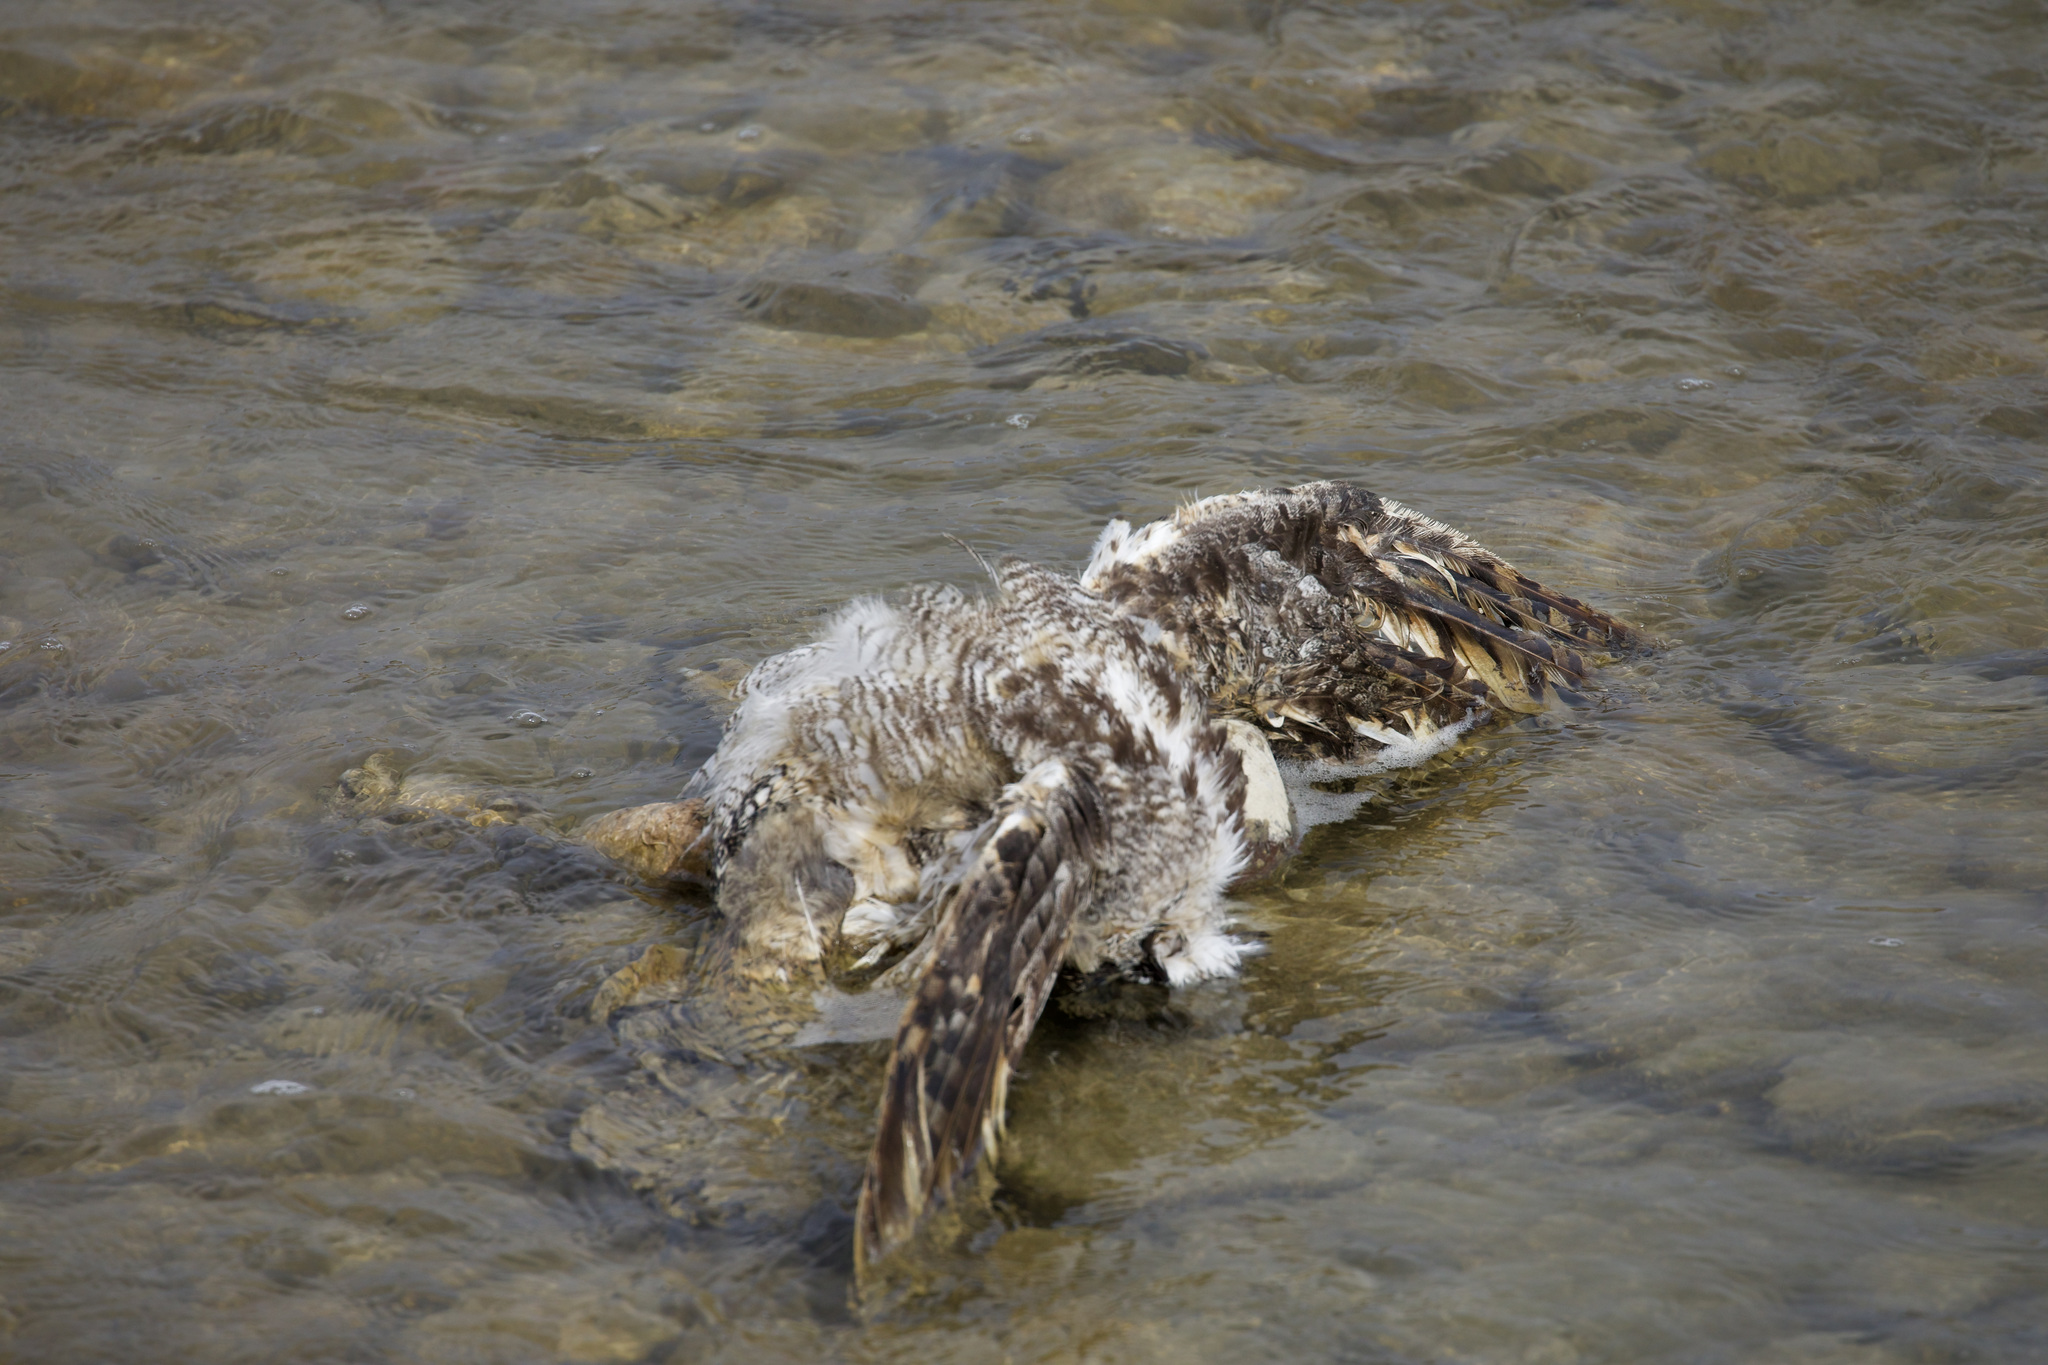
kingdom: Animalia
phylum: Chordata
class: Aves
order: Strigiformes
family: Strigidae
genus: Bubo
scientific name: Bubo virginianus
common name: Great horned owl
